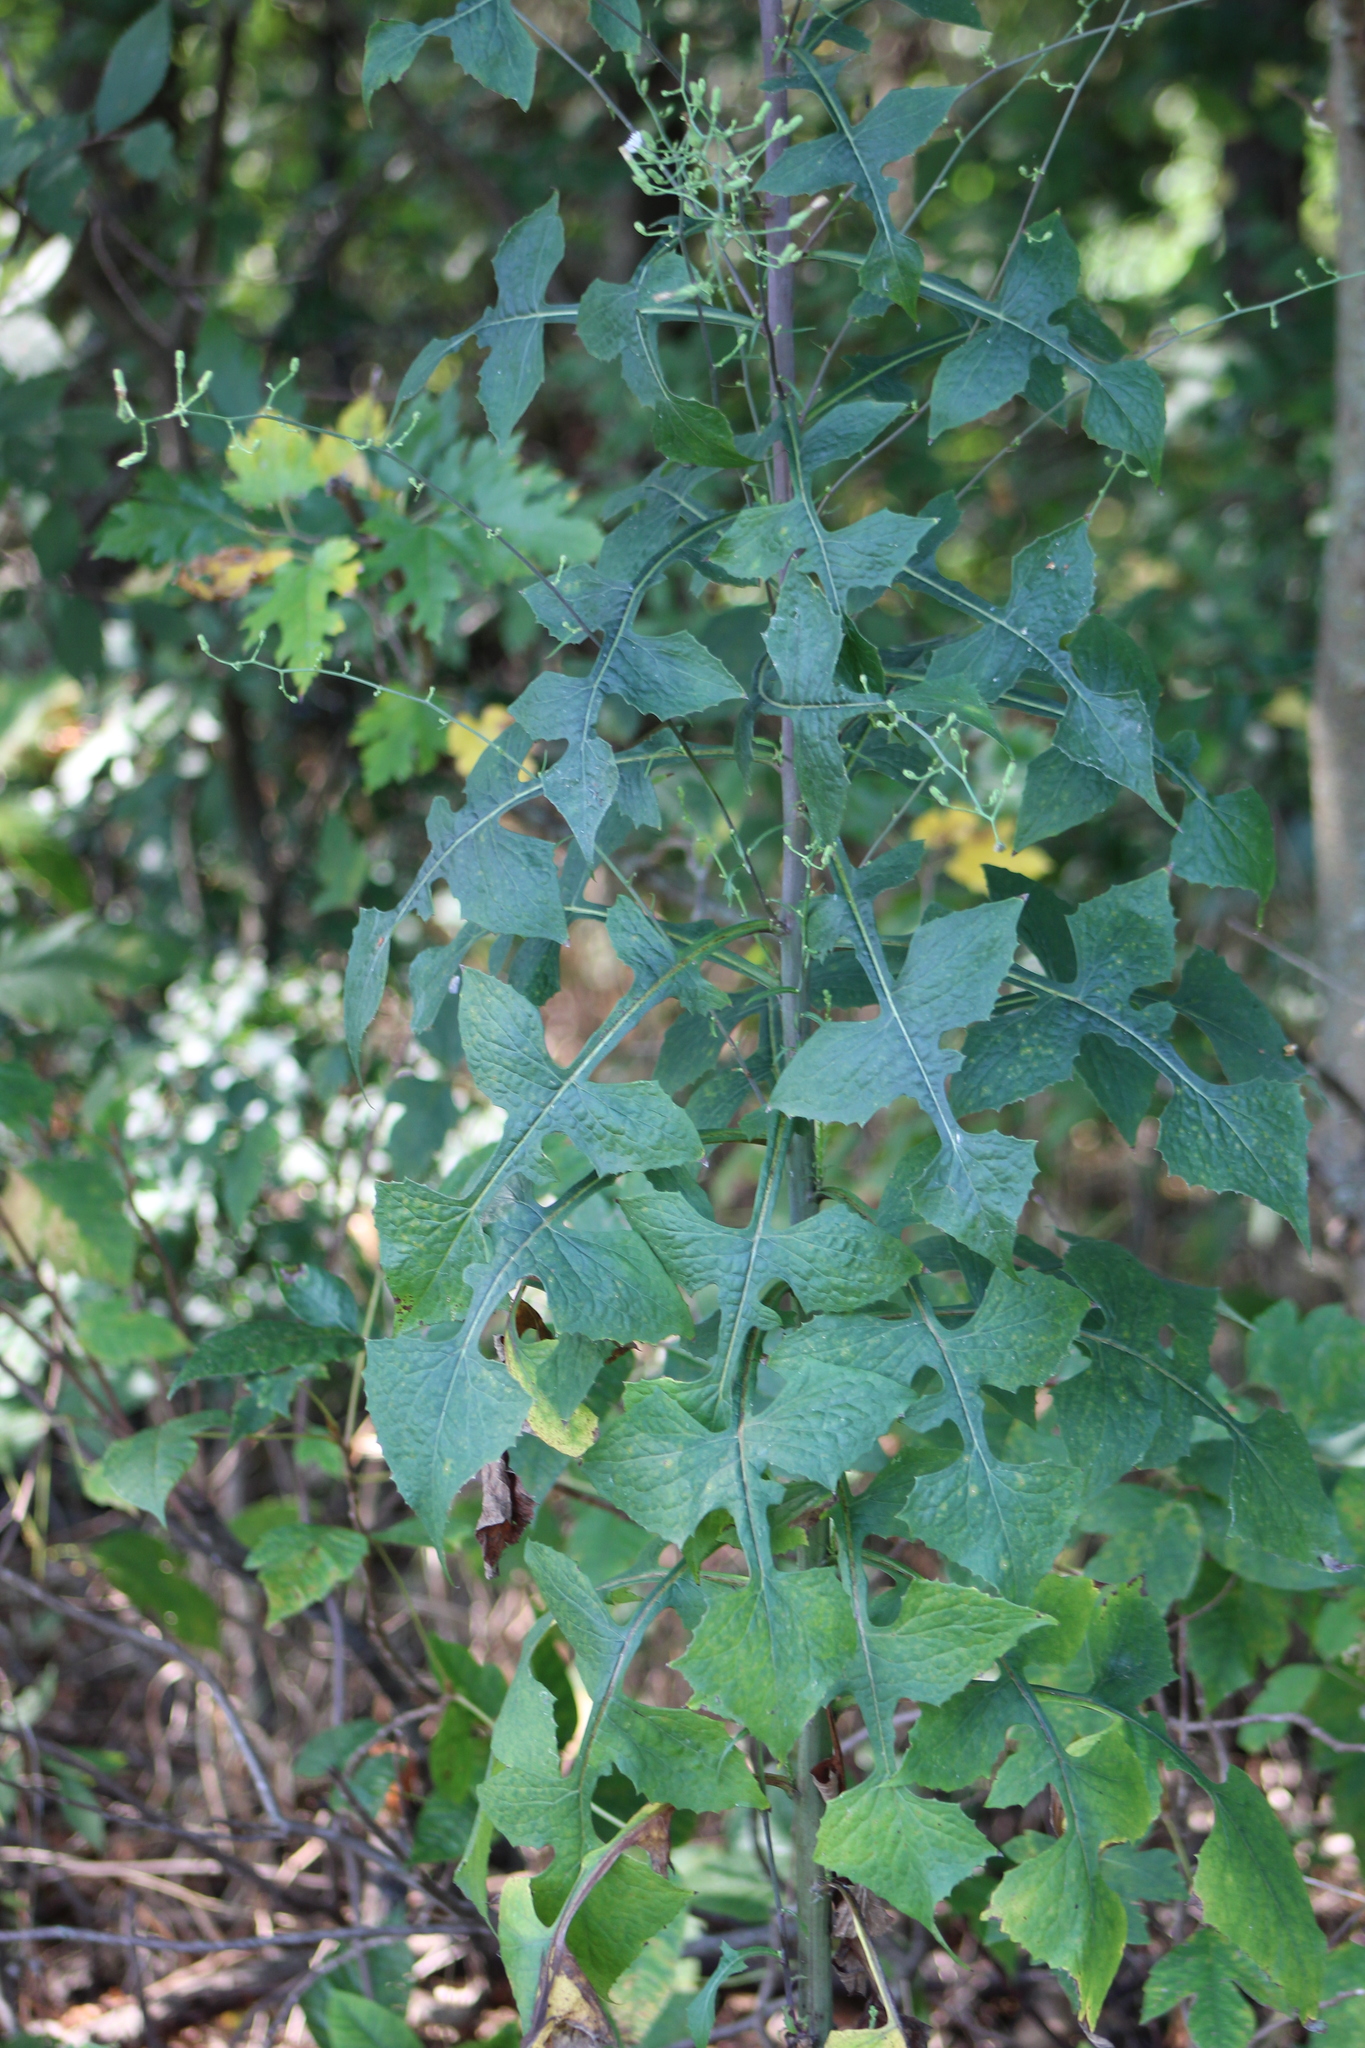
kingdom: Plantae
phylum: Tracheophyta
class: Magnoliopsida
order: Asterales
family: Asteraceae
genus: Lactuca
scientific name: Lactuca floridana
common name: Woodland lettuce
